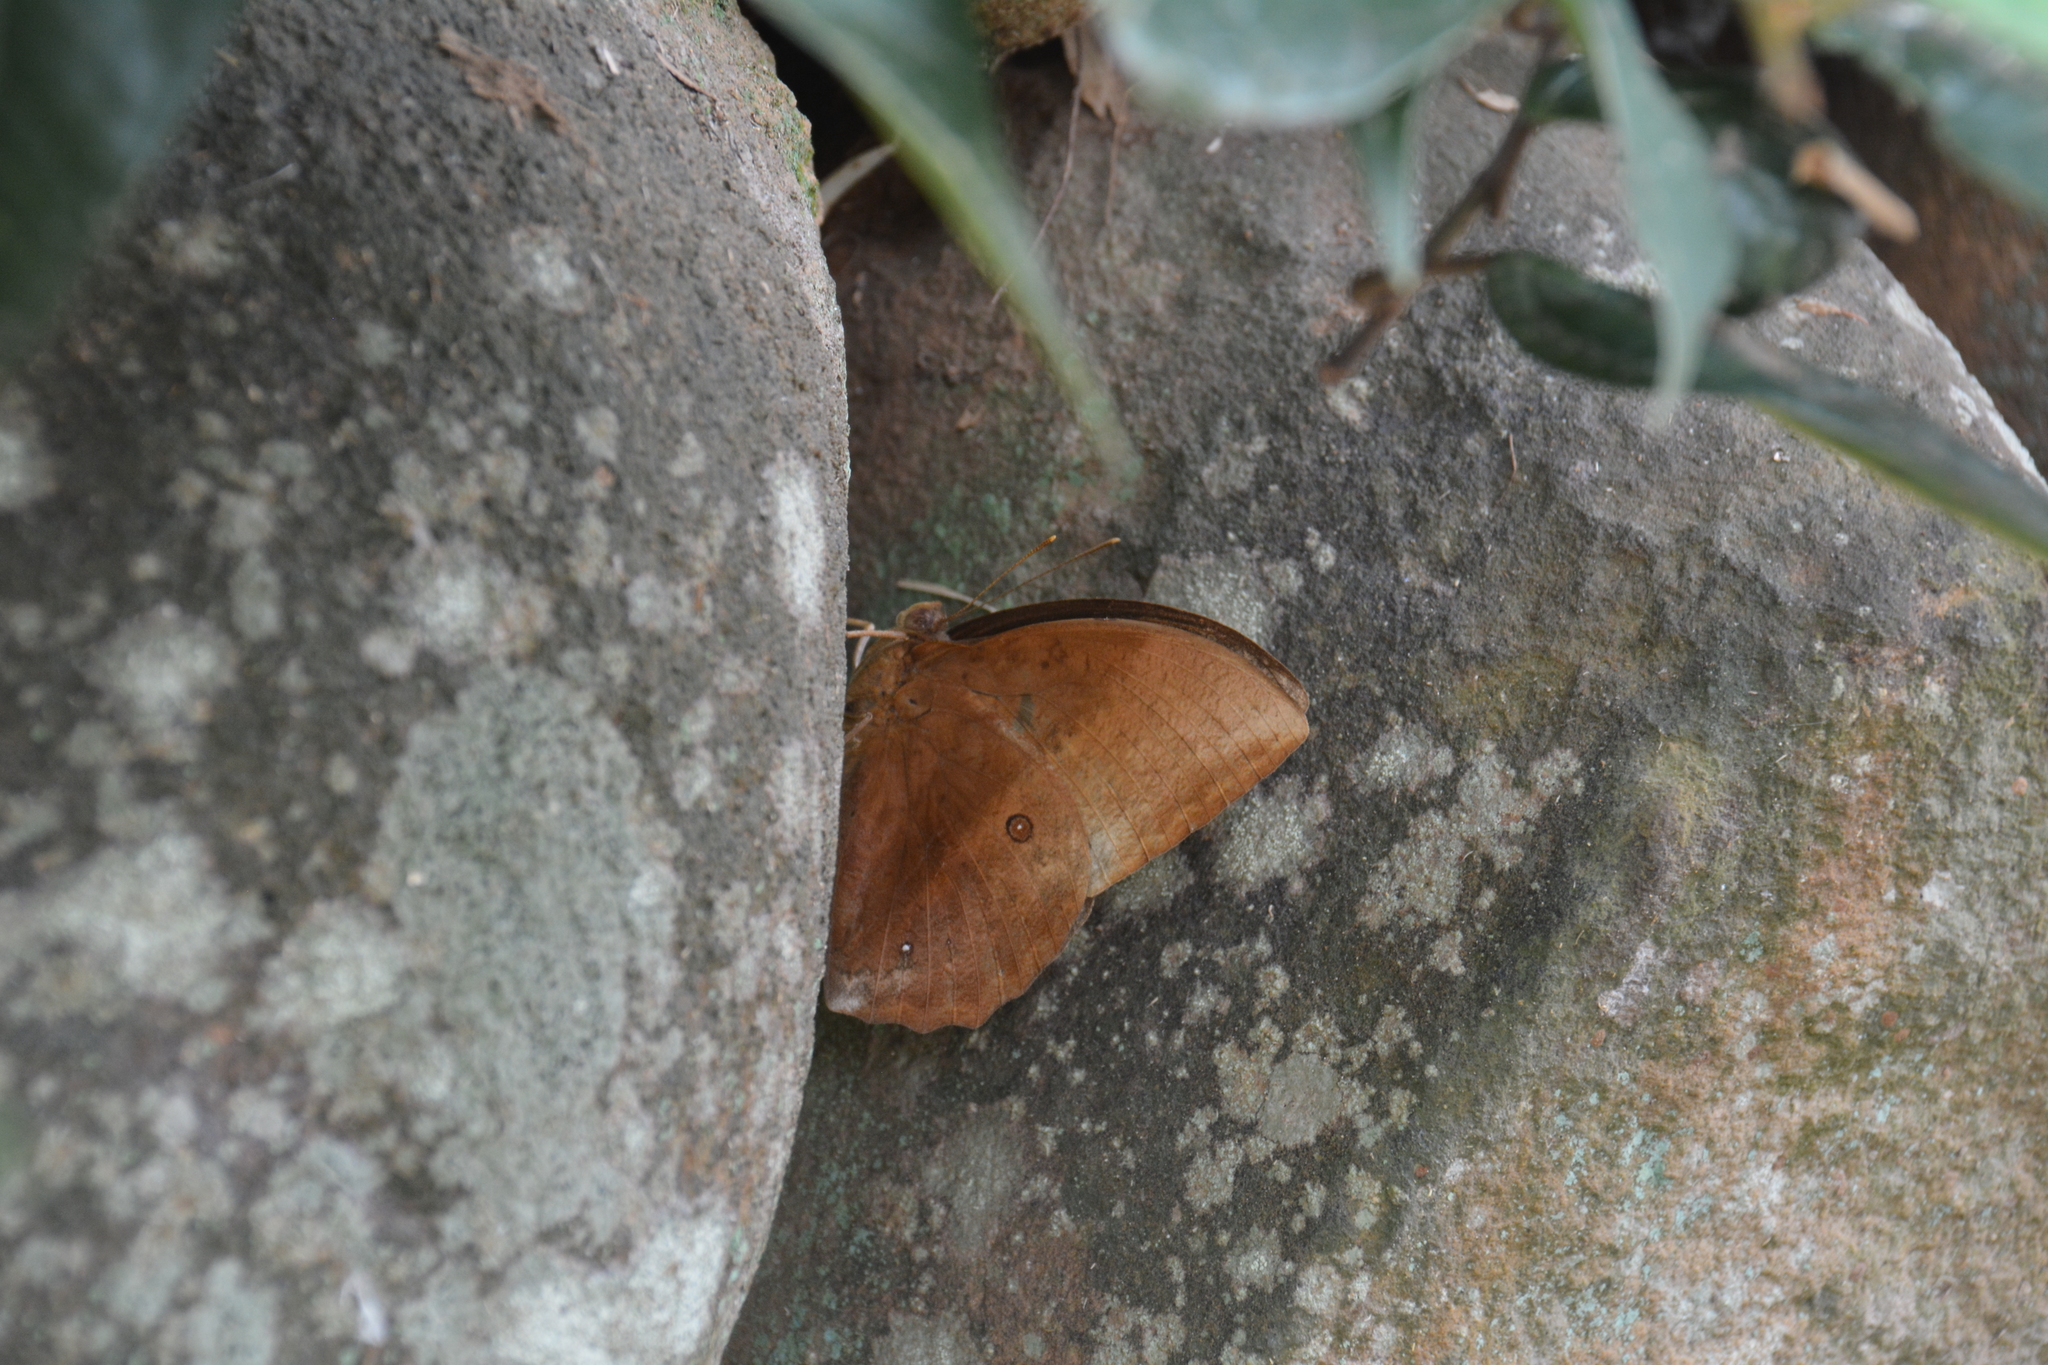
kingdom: Animalia
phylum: Arthropoda
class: Insecta
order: Lepidoptera
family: Nymphalidae
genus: Discophora
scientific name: Discophora sondaica
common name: Common duffer
